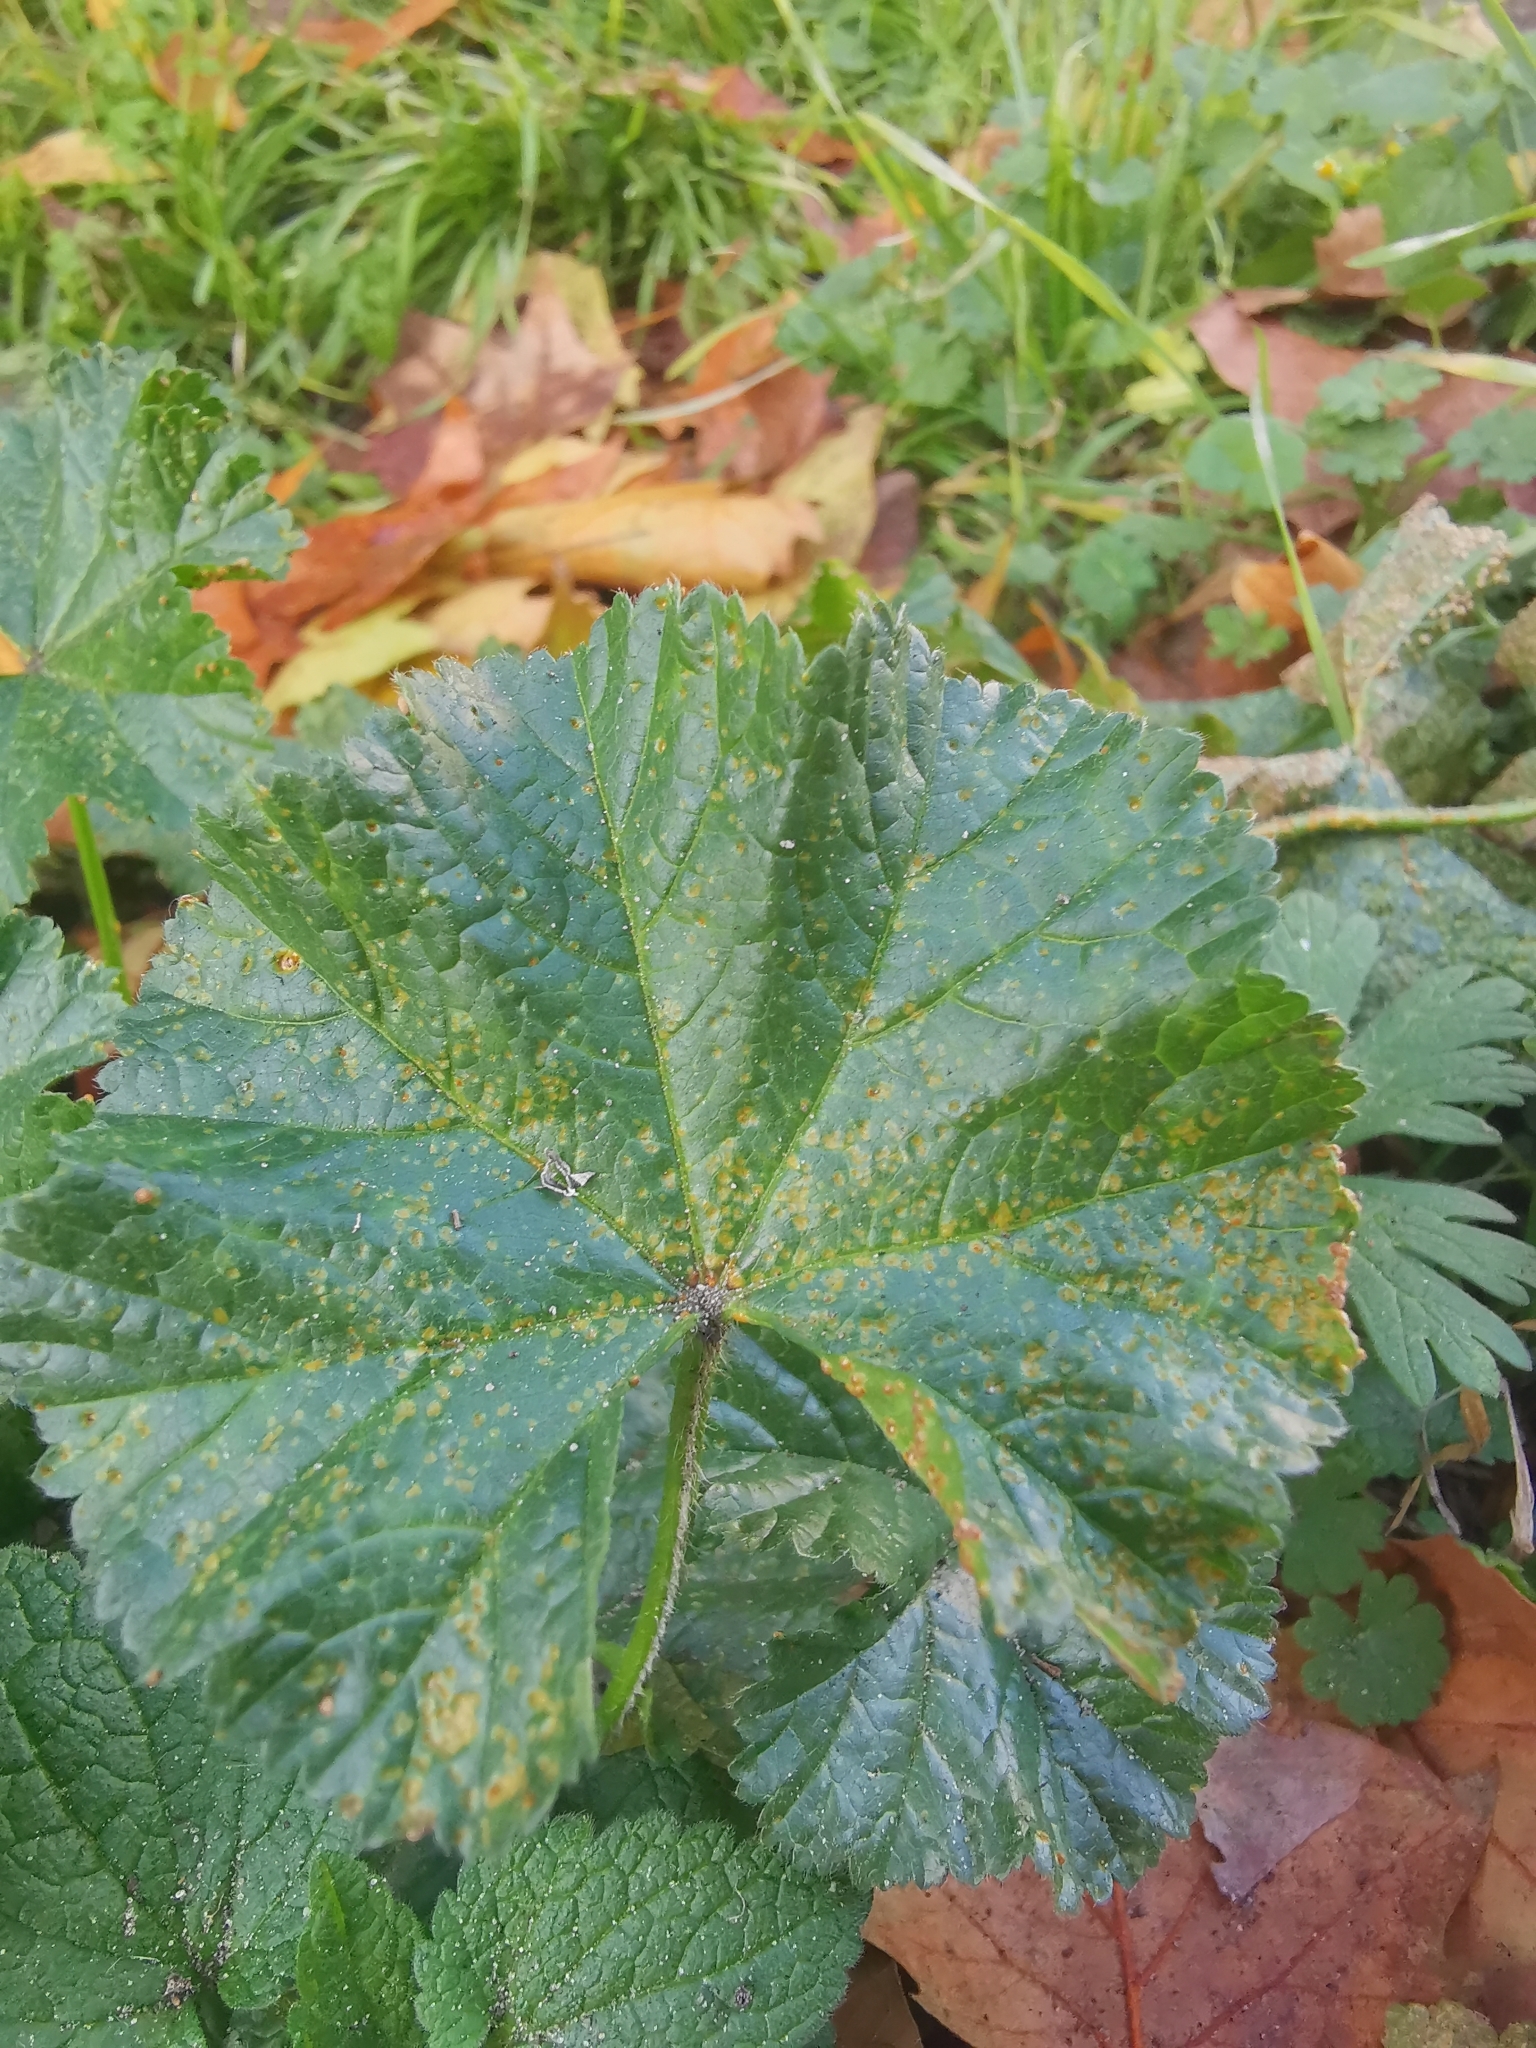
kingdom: Fungi
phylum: Basidiomycota
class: Pucciniomycetes
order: Pucciniales
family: Pucciniaceae
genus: Puccinia
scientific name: Puccinia malvacearum
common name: Hollyhock rust
